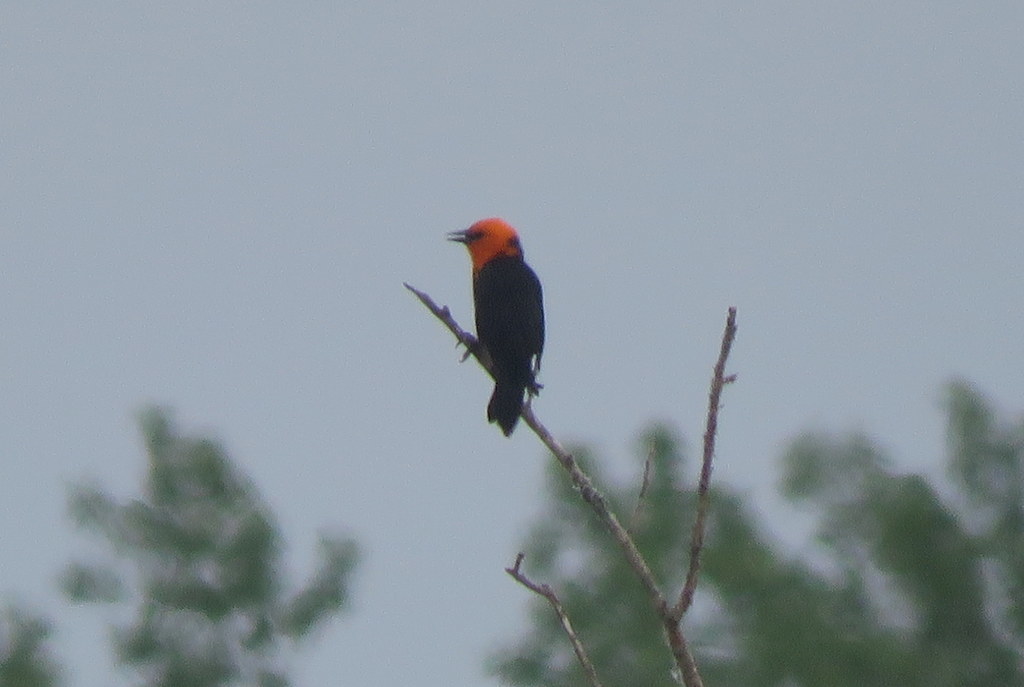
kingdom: Animalia
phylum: Chordata
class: Aves
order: Passeriformes
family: Icteridae
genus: Amblyramphus
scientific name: Amblyramphus holosericeus
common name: Scarlet-headed blackbird
